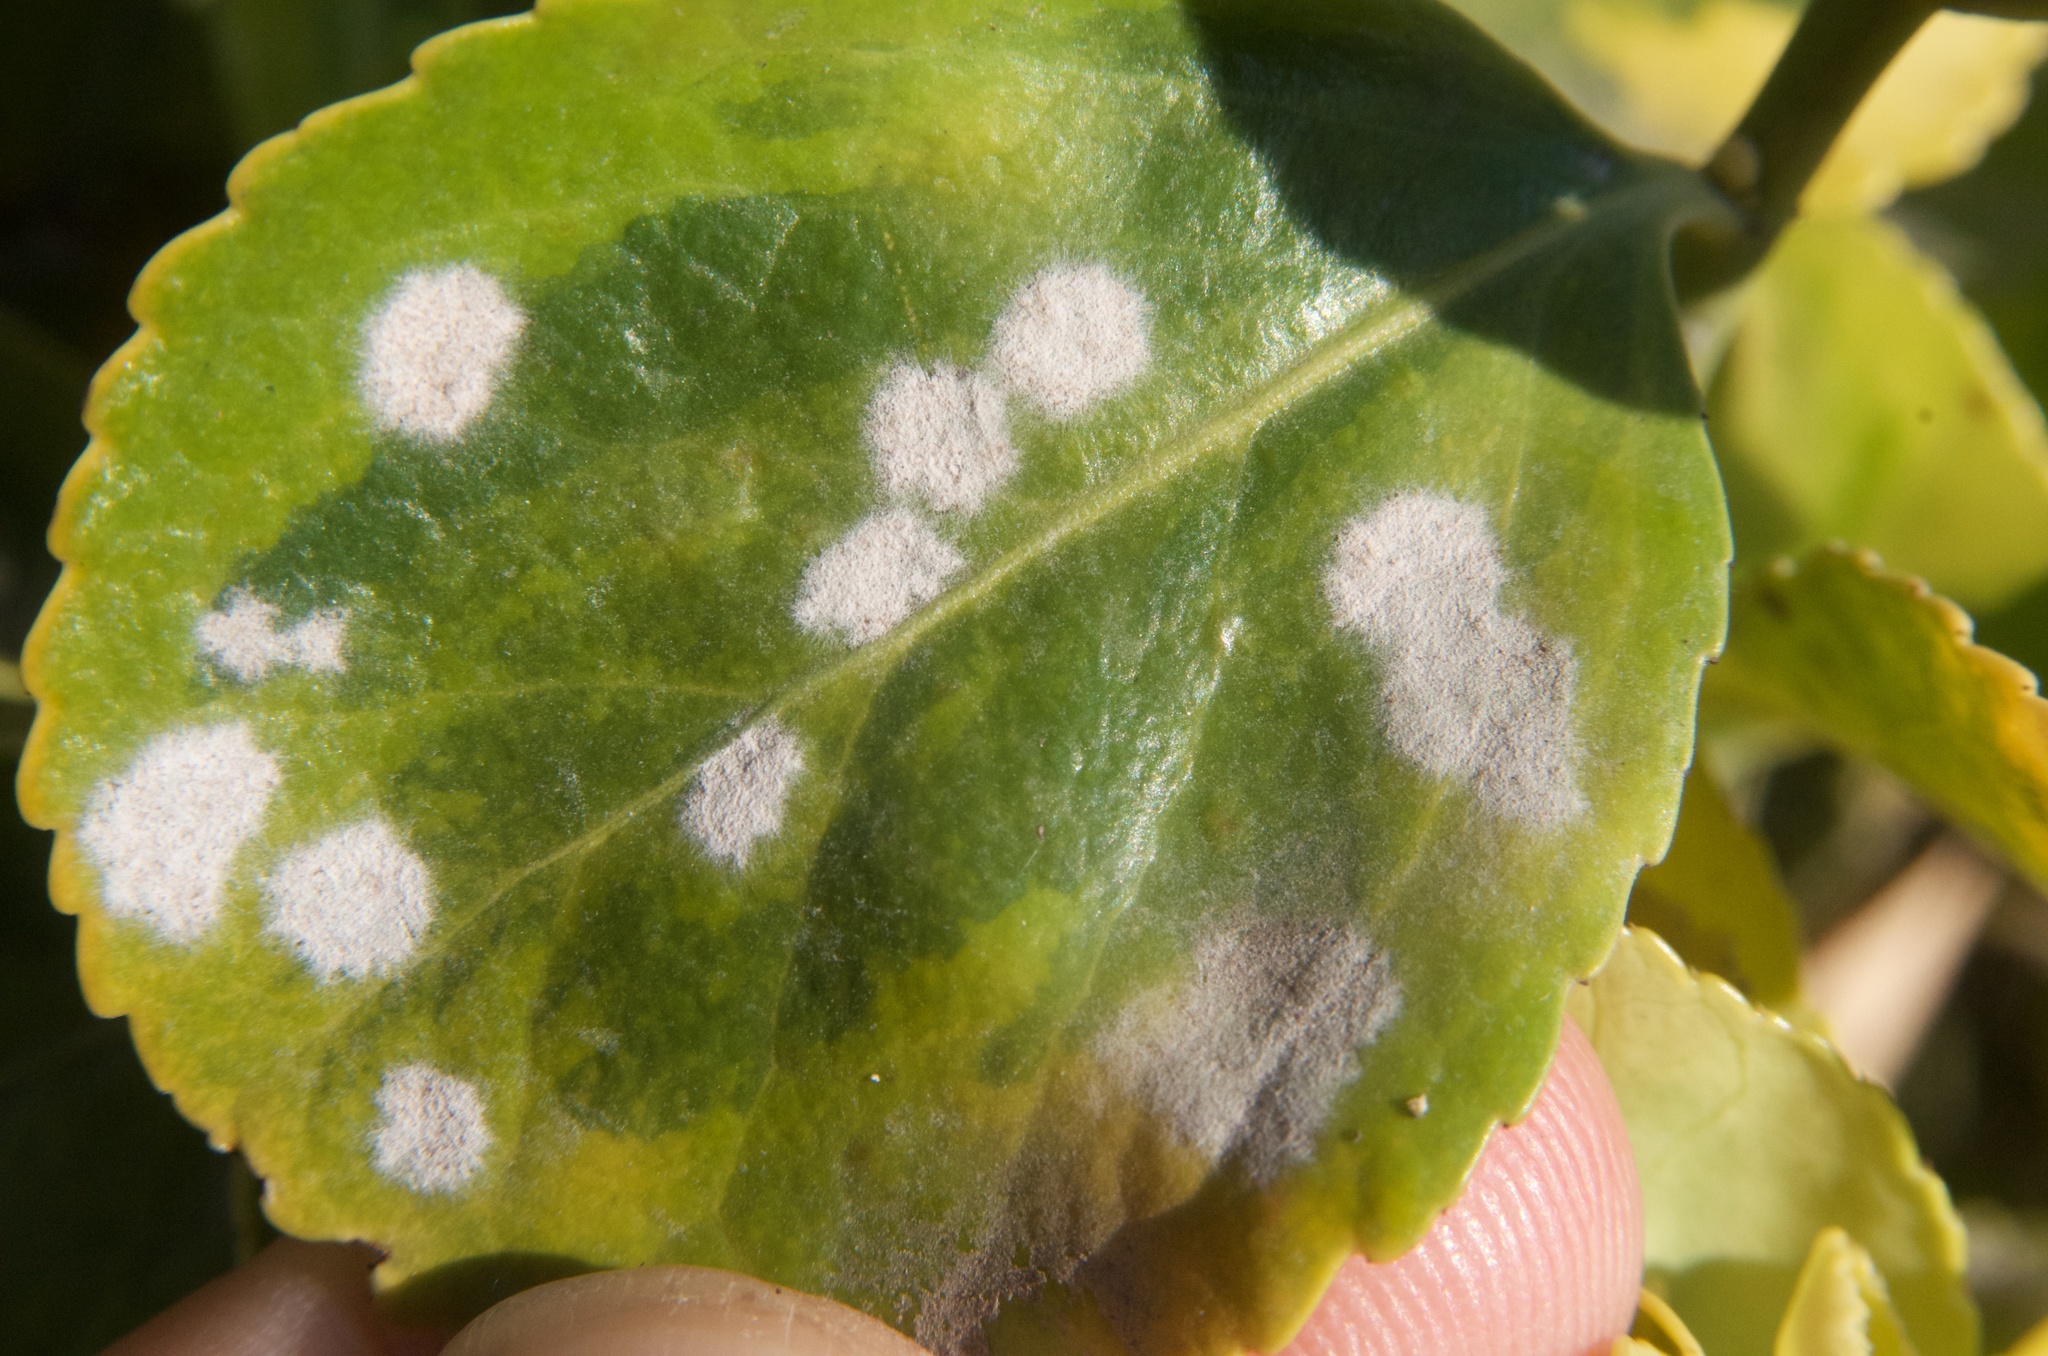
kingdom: Fungi
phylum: Ascomycota
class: Leotiomycetes
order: Helotiales
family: Erysiphaceae
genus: Erysiphe
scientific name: Erysiphe euonymicola
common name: Spindletree mildew
